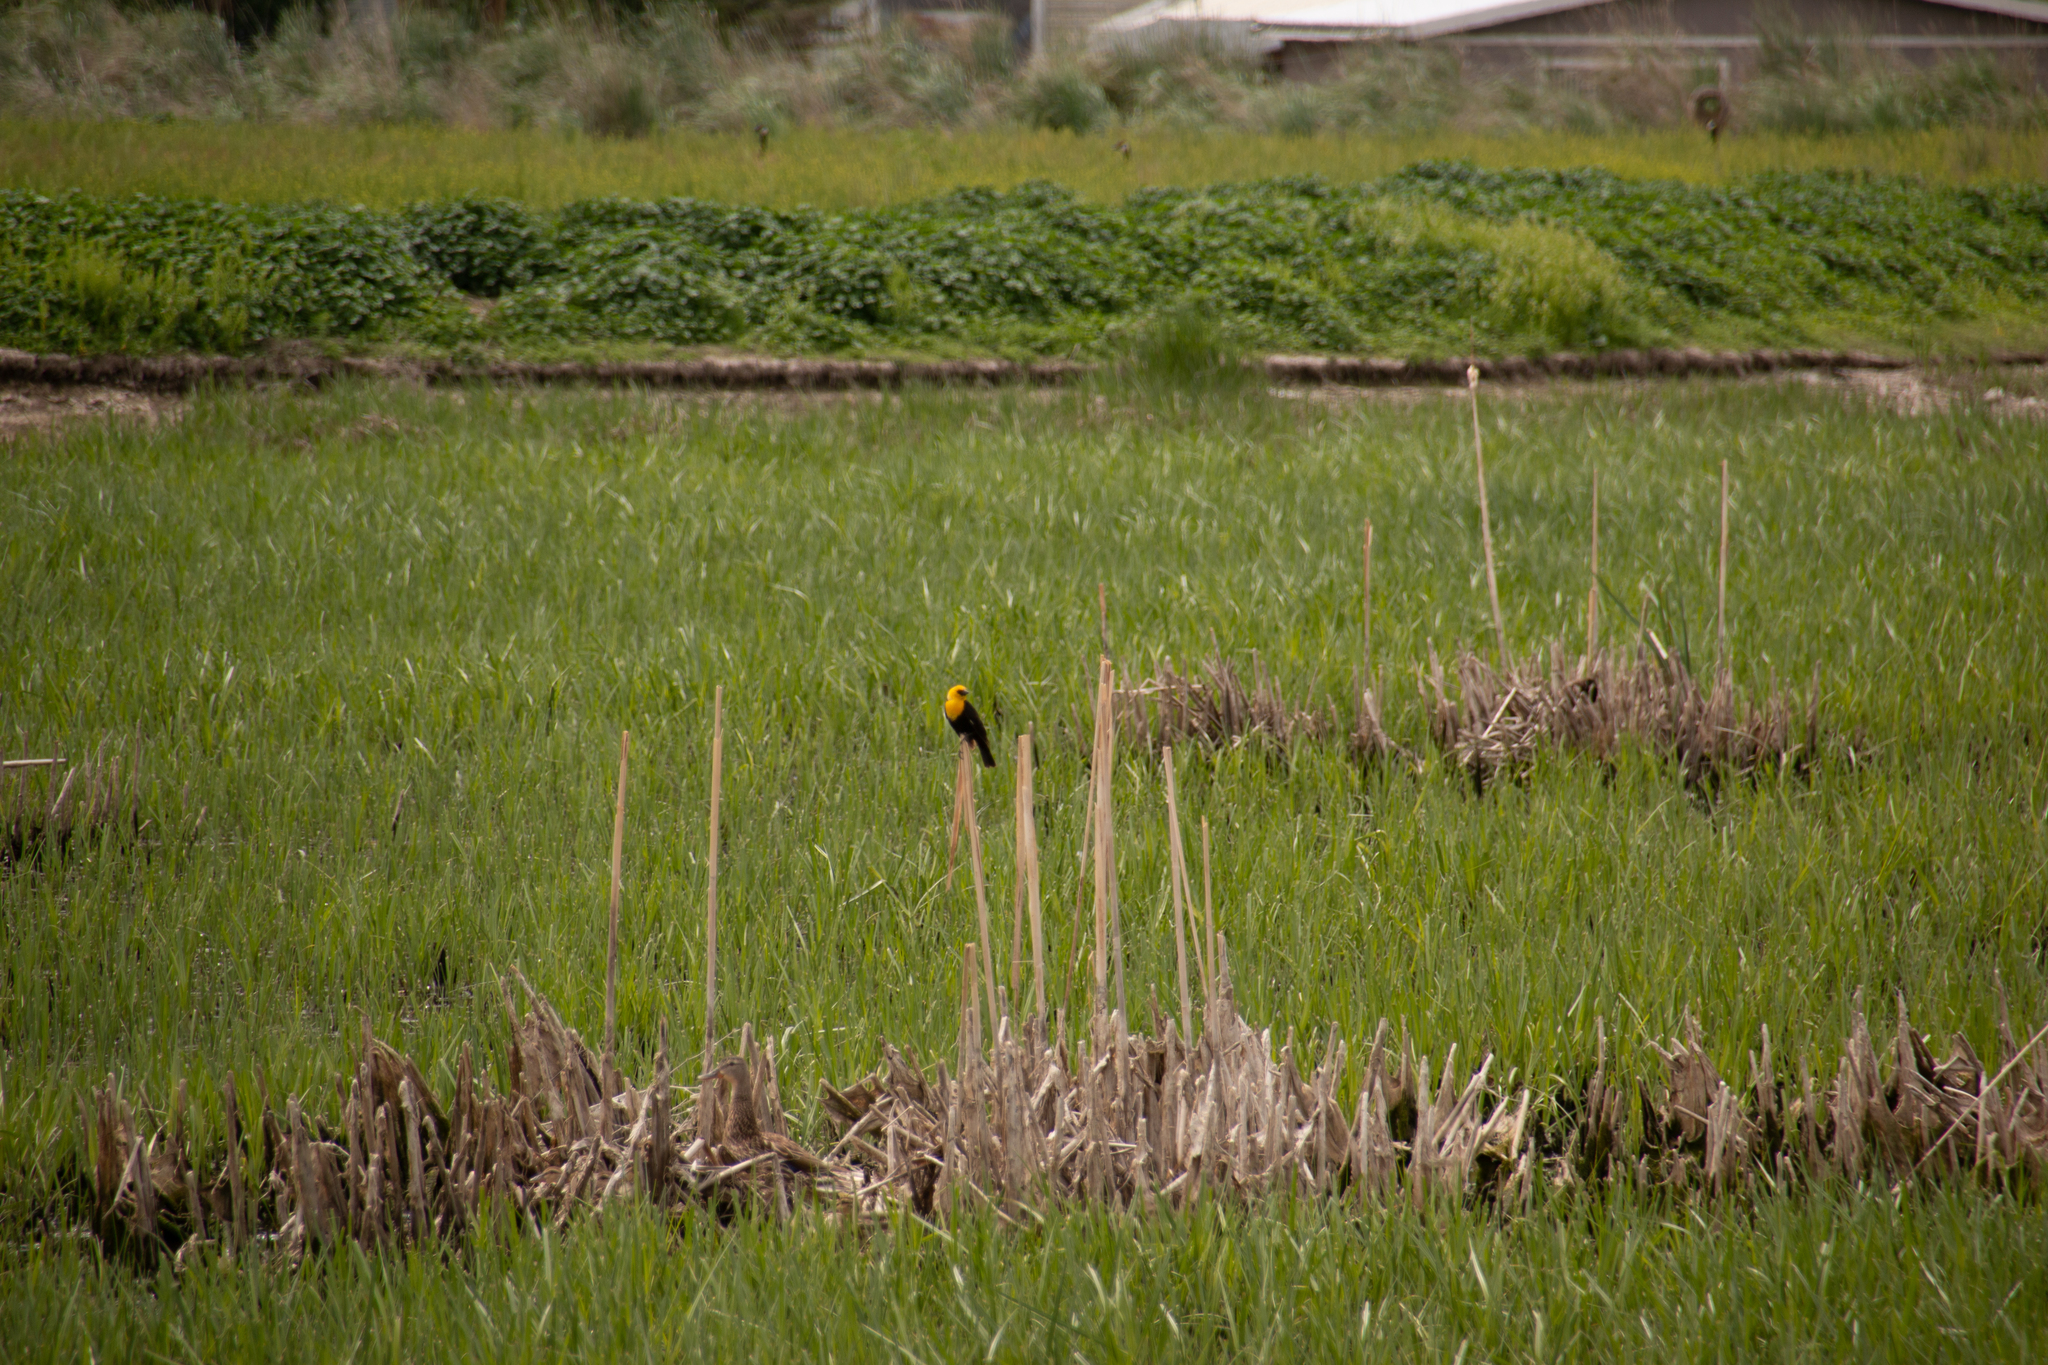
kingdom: Animalia
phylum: Chordata
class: Aves
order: Passeriformes
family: Icteridae
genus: Xanthocephalus
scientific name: Xanthocephalus xanthocephalus
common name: Yellow-headed blackbird
